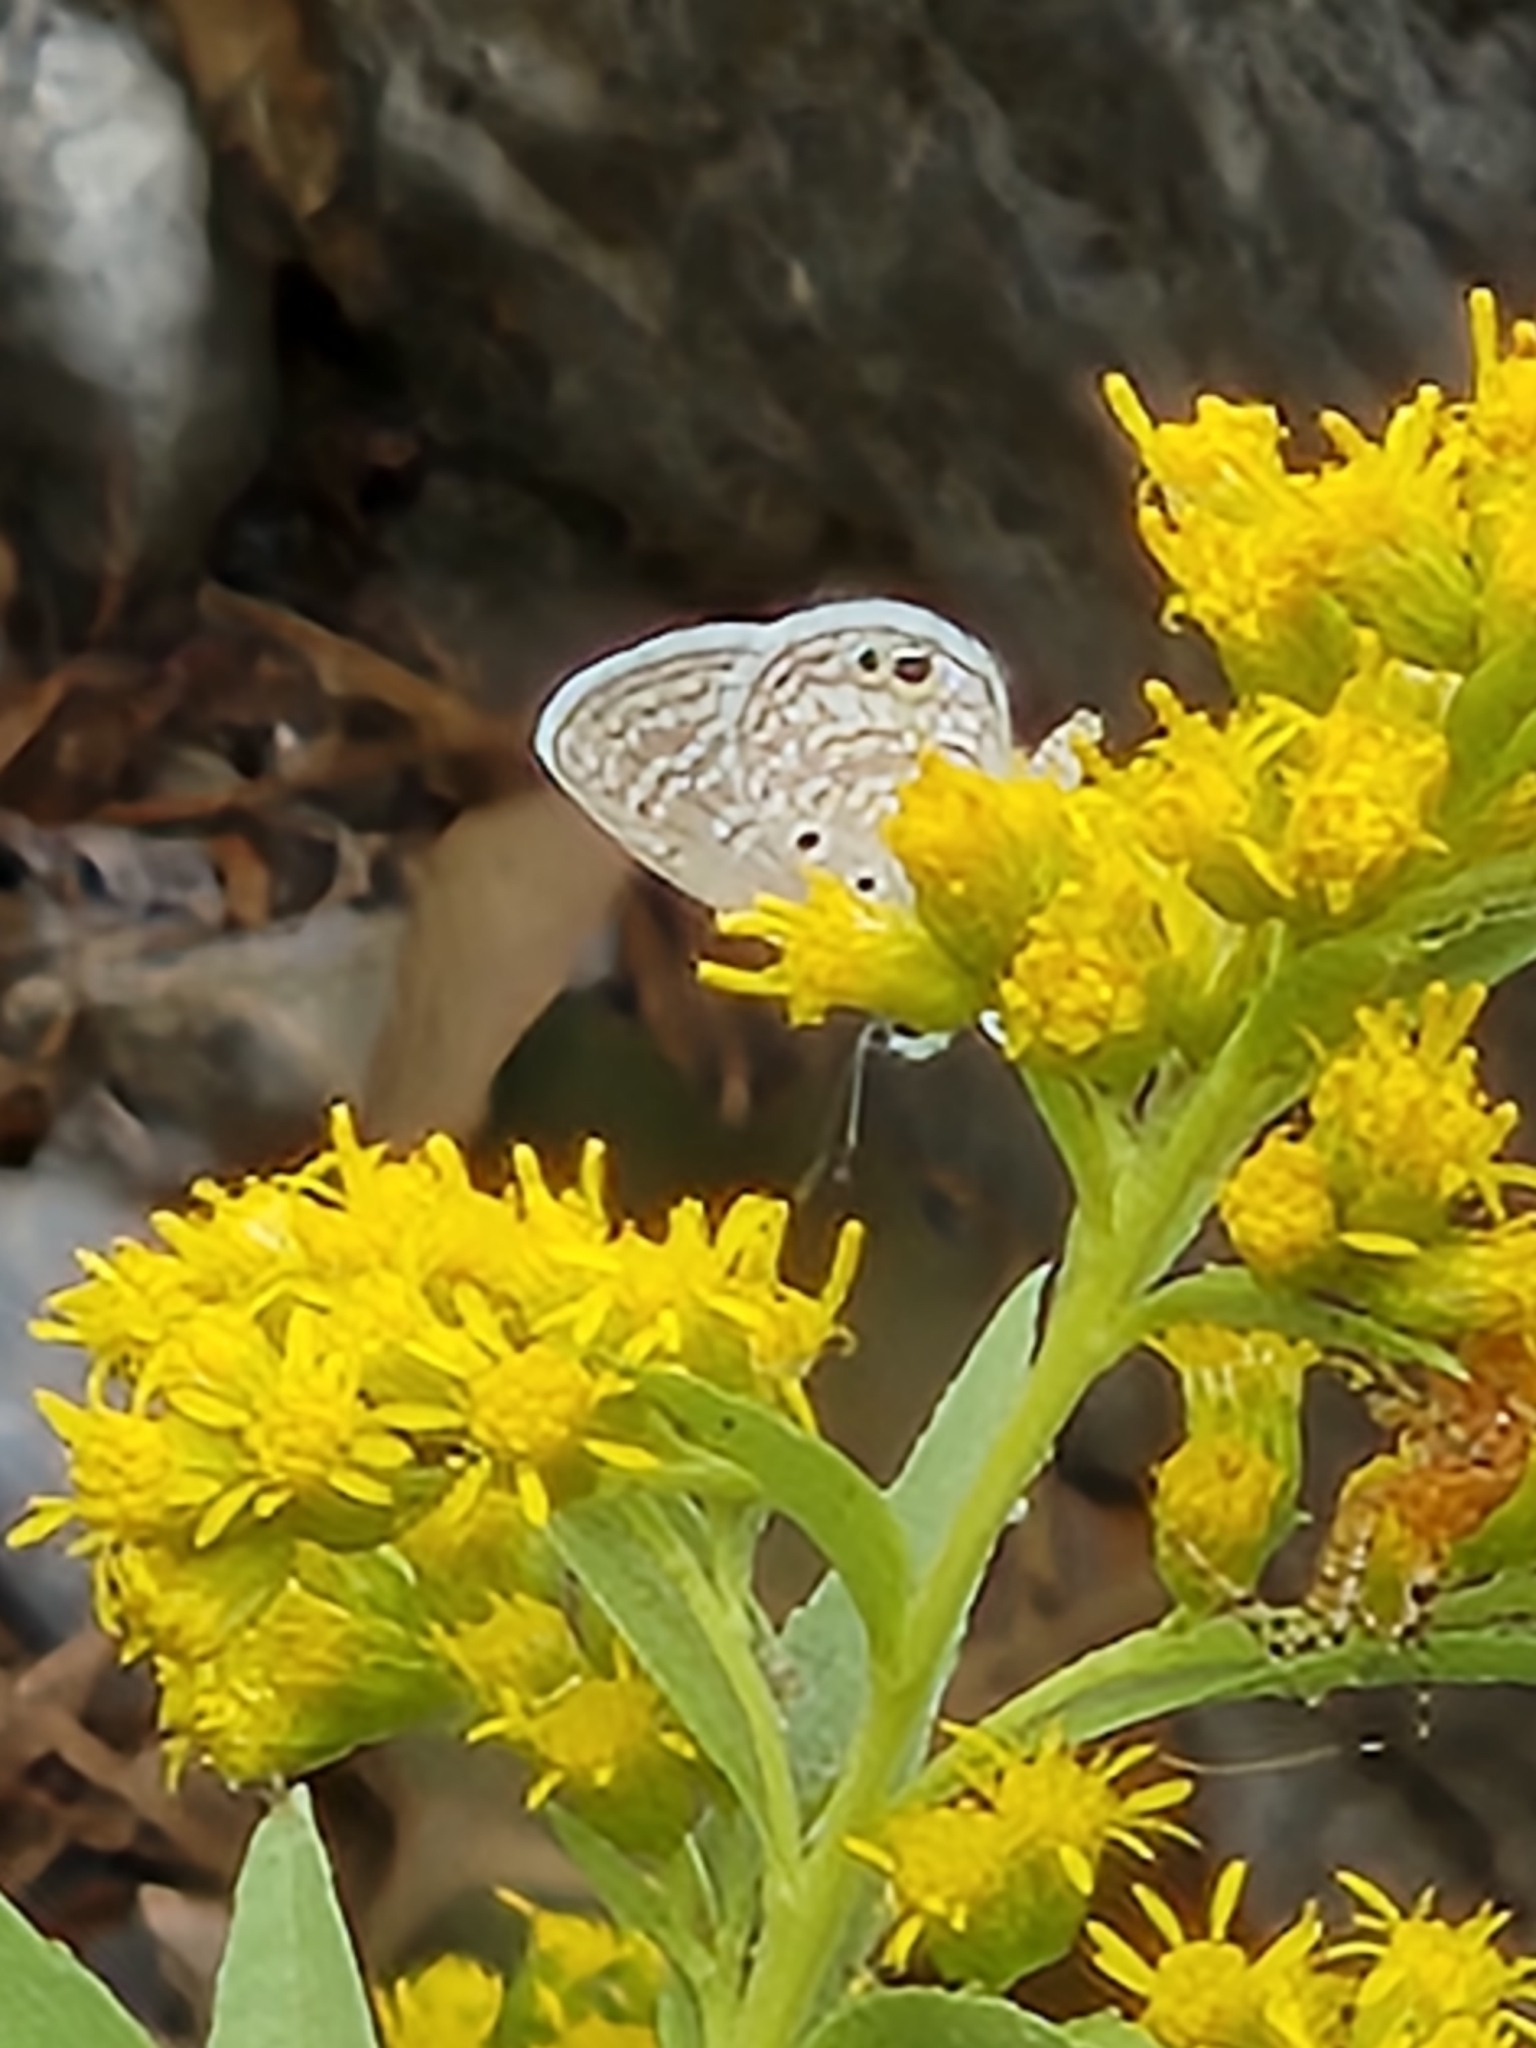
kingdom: Animalia
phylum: Arthropoda
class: Insecta
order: Lepidoptera
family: Lycaenidae
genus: Hemiargus
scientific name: Hemiargus ceraunus
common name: Ceraunus blue
